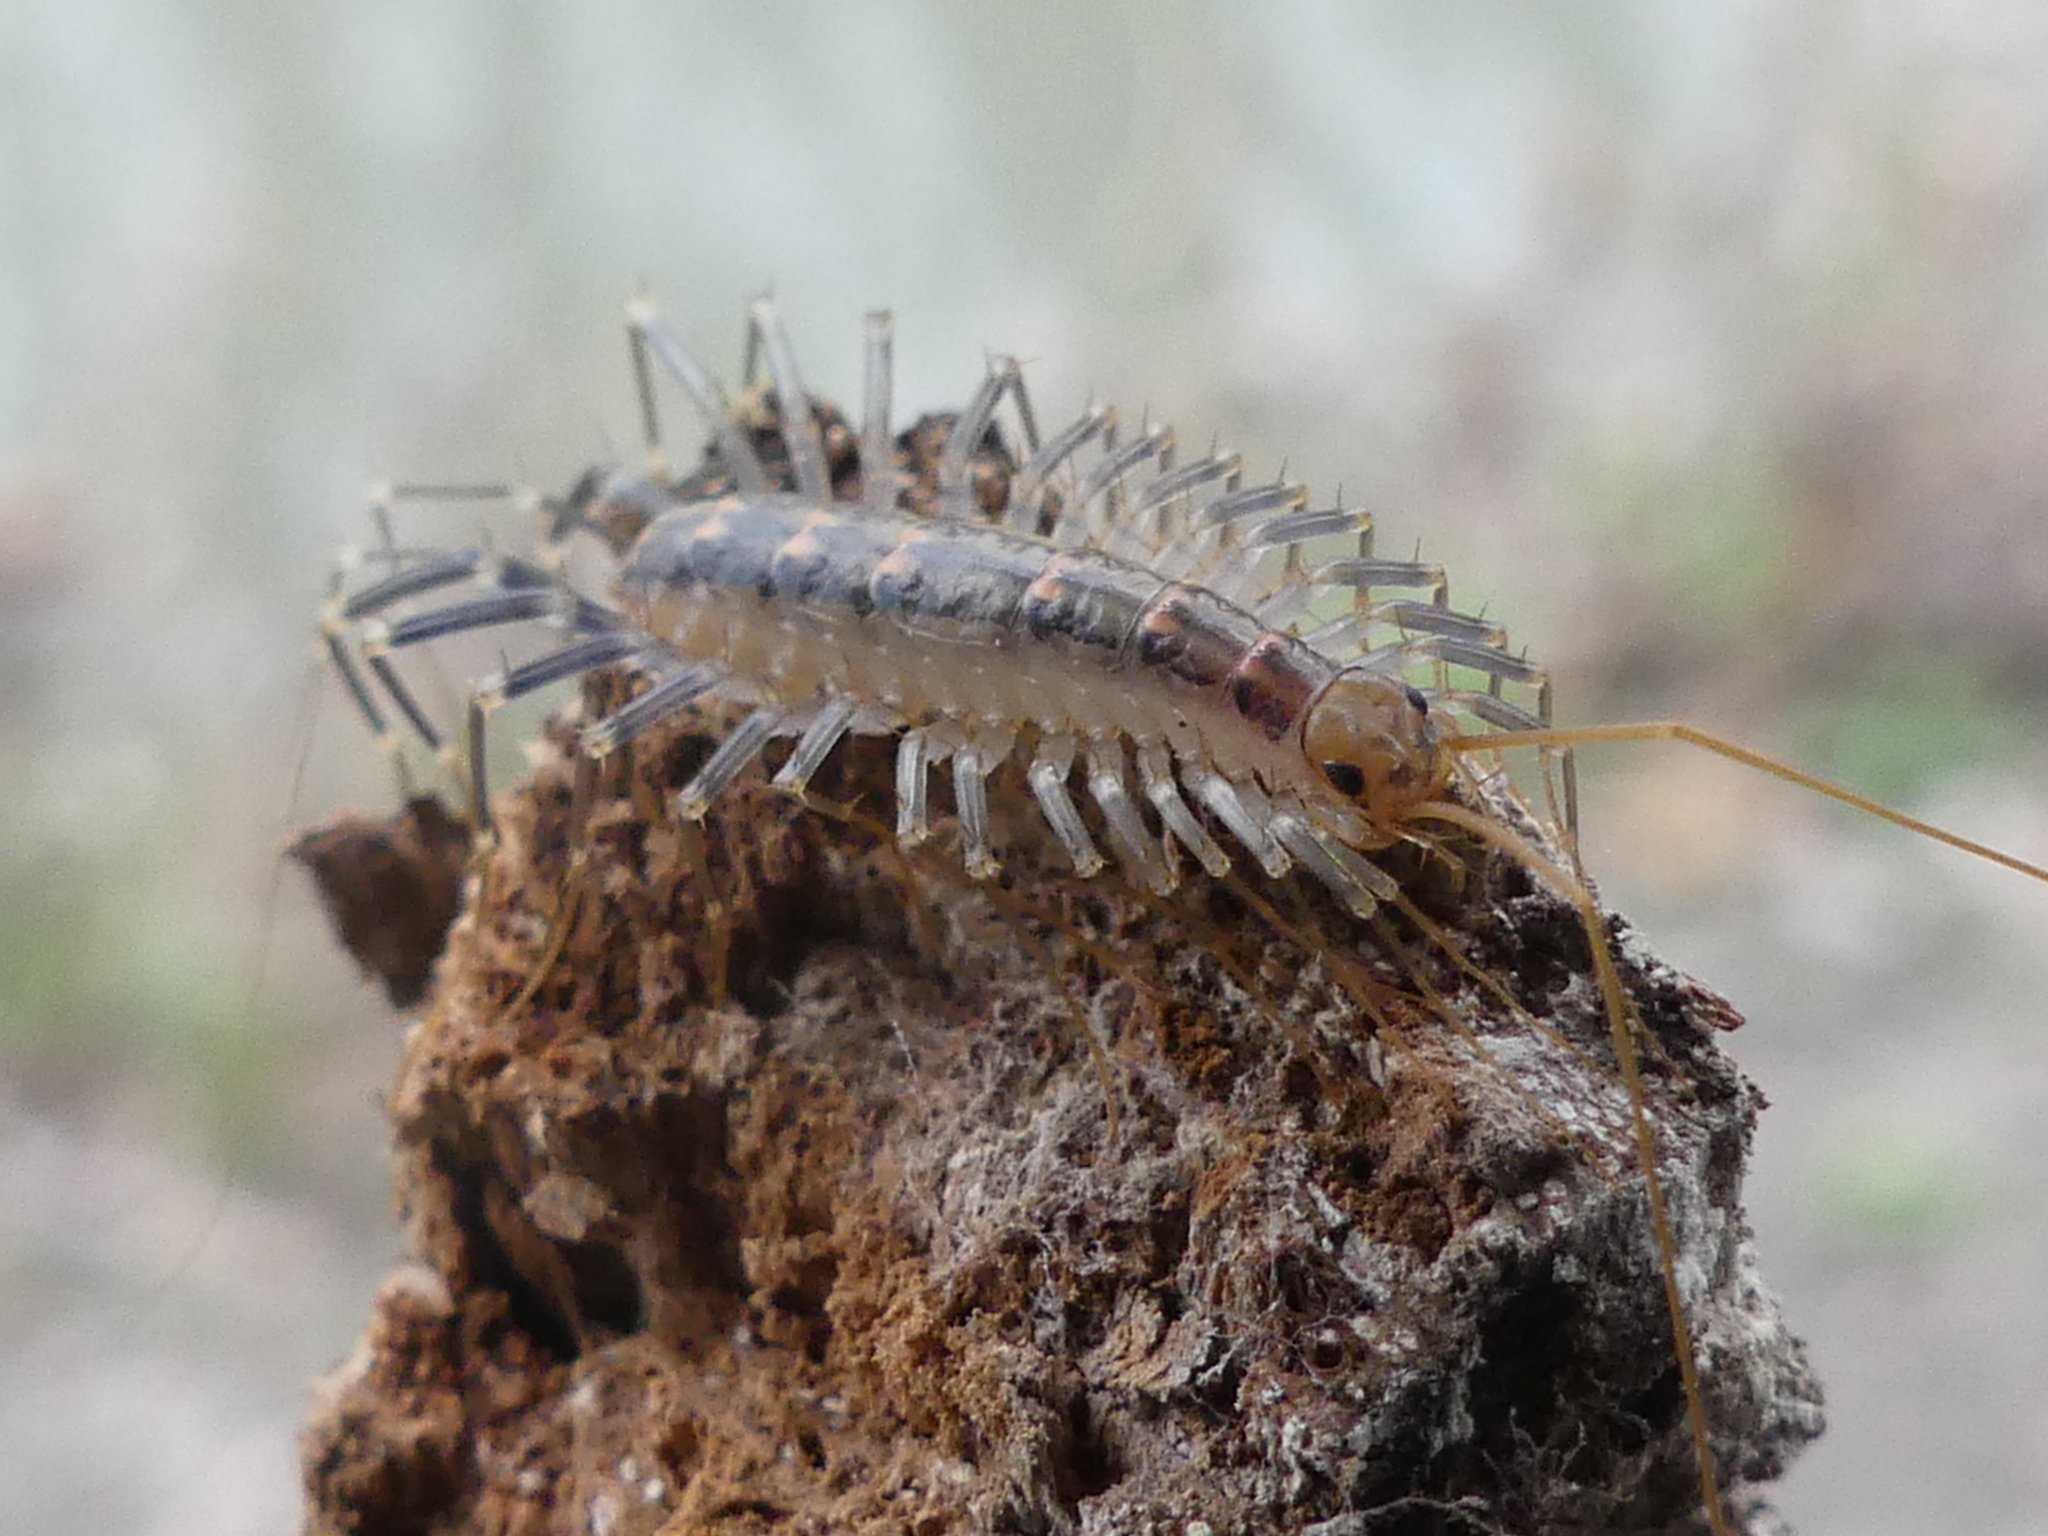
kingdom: Animalia
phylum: Arthropoda
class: Chilopoda
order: Scutigeromorpha
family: Scutigeridae
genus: Scutigera
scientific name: Scutigera coleoptrata
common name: House centipede
